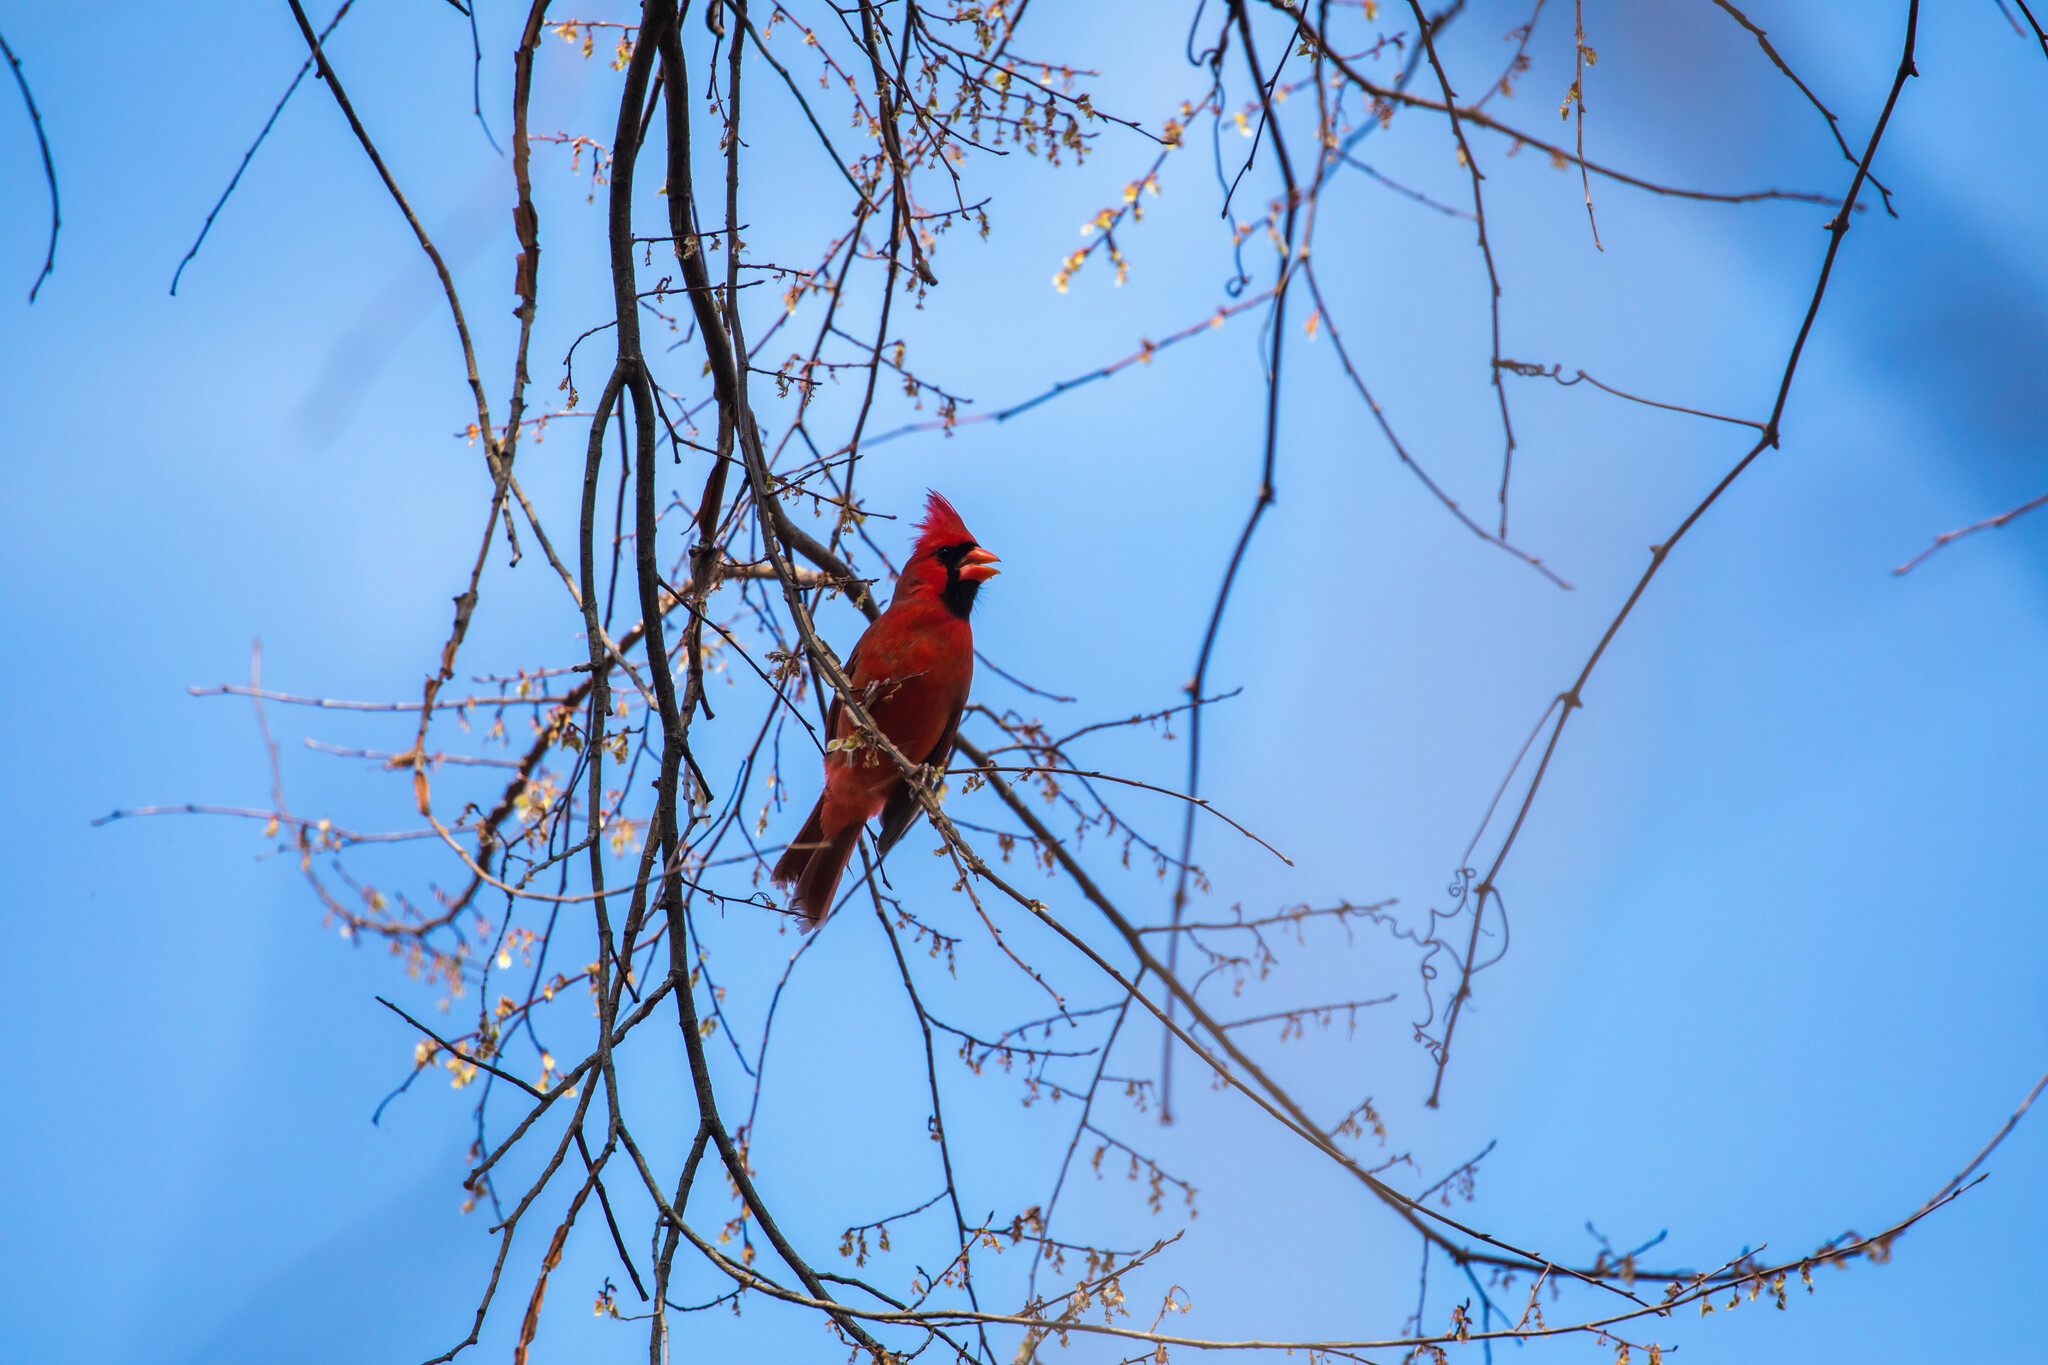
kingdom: Animalia
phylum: Chordata
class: Aves
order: Passeriformes
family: Cardinalidae
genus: Cardinalis
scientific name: Cardinalis cardinalis
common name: Northern cardinal
